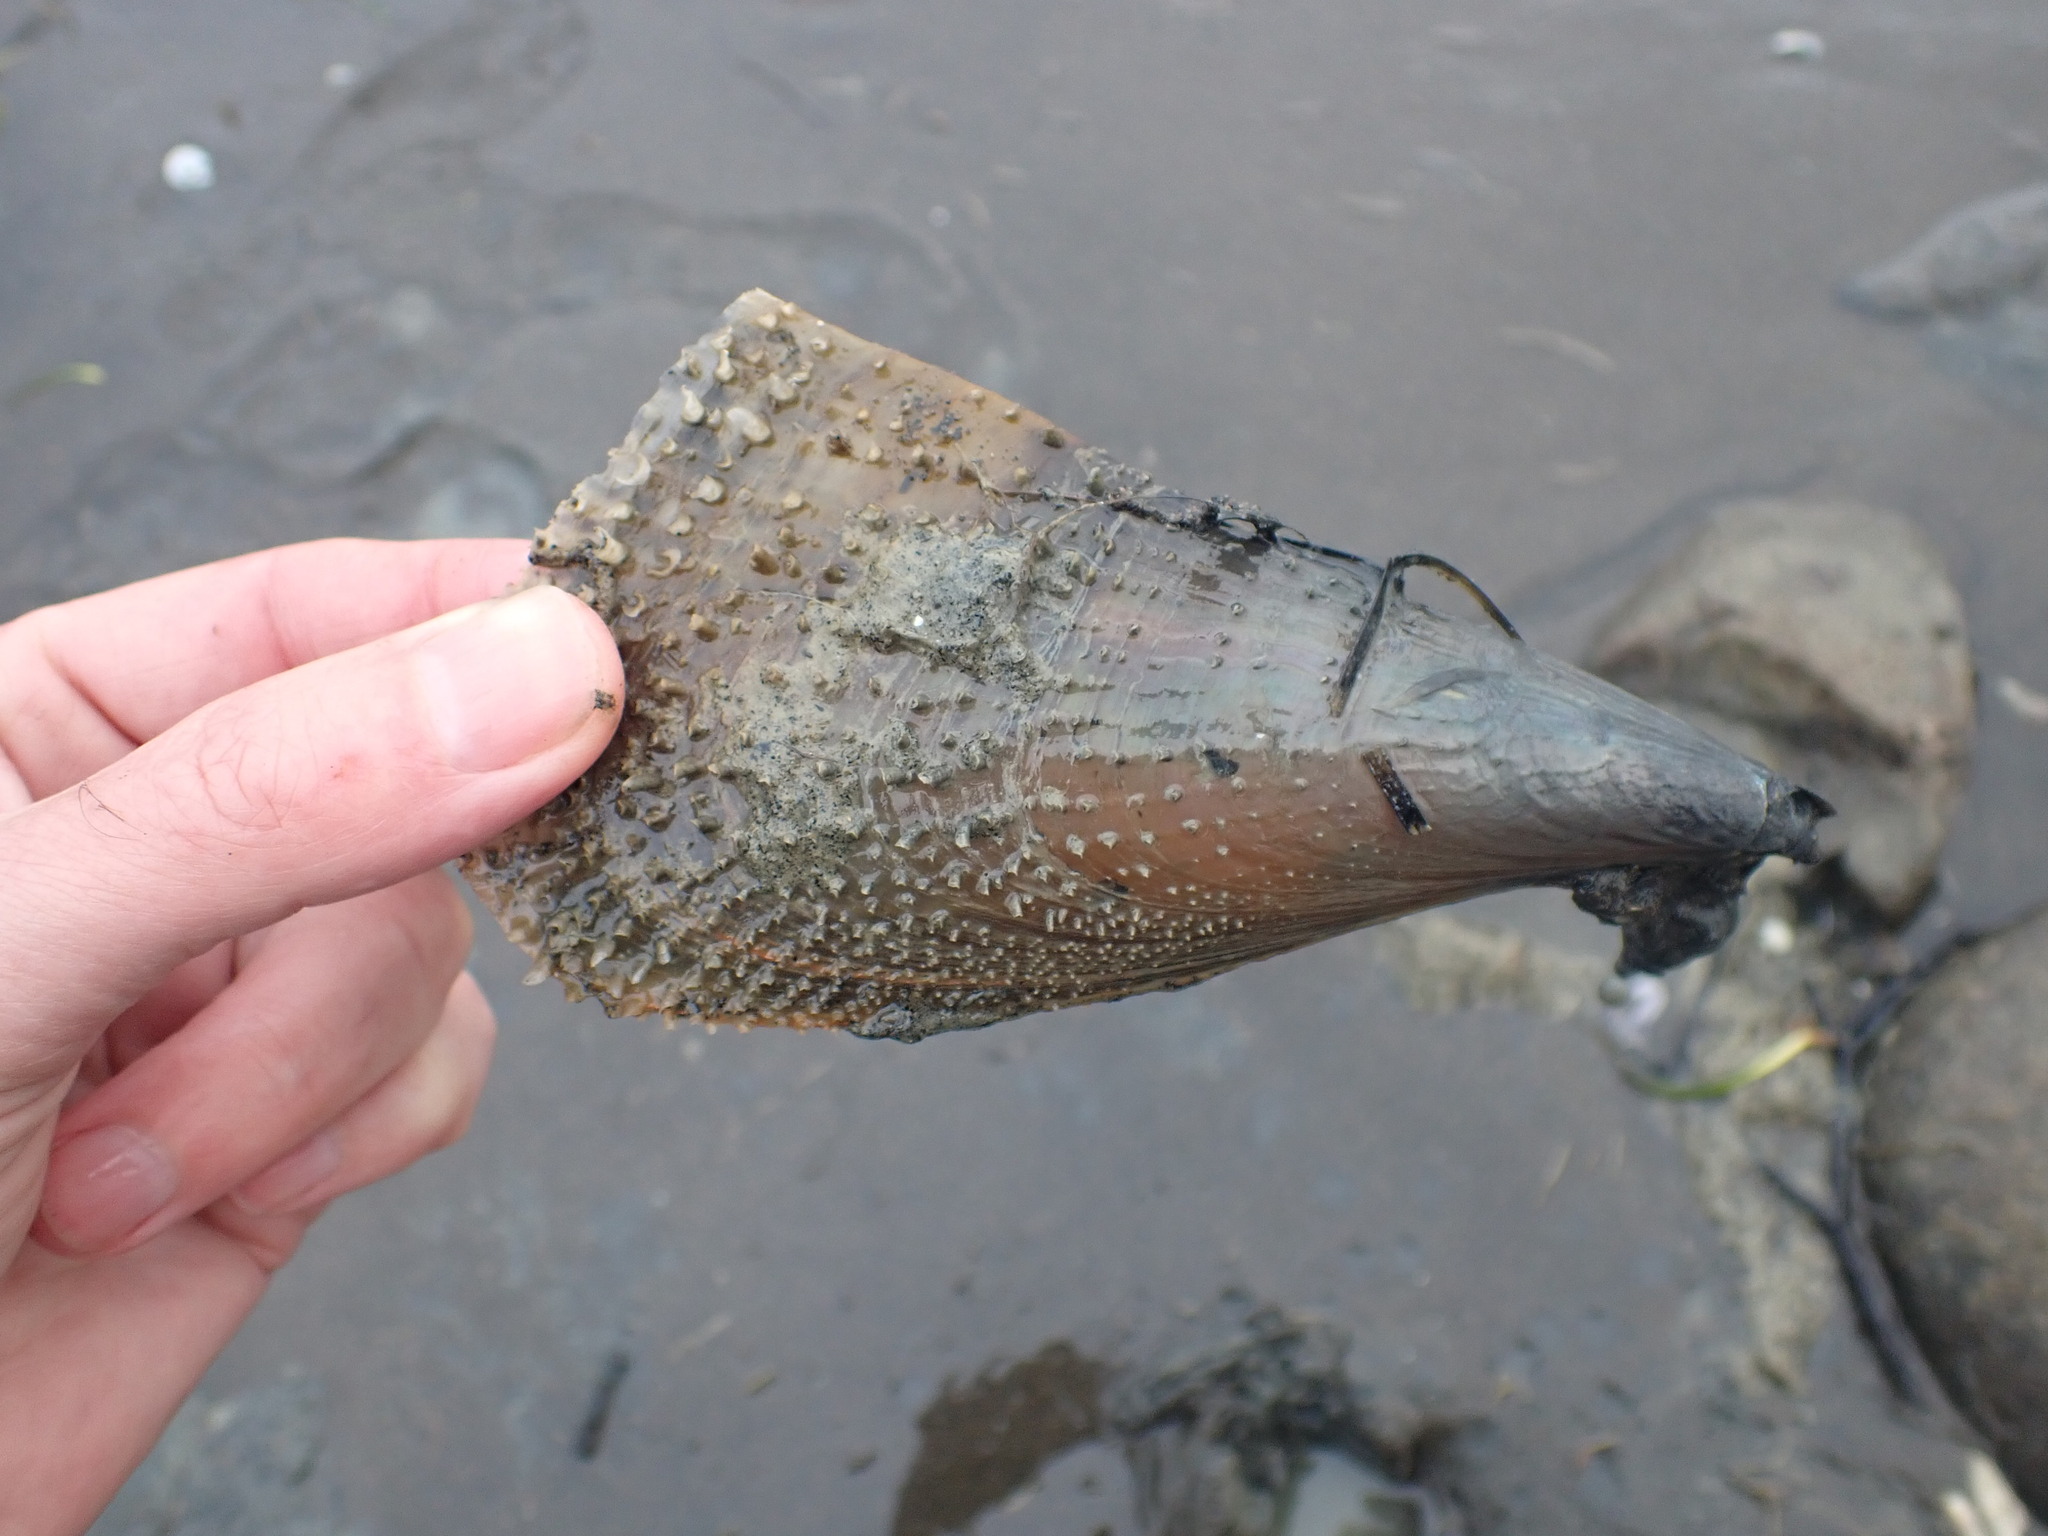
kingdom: Animalia
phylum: Mollusca
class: Bivalvia
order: Ostreida
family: Pinnidae
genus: Atrina
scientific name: Atrina zelandica
